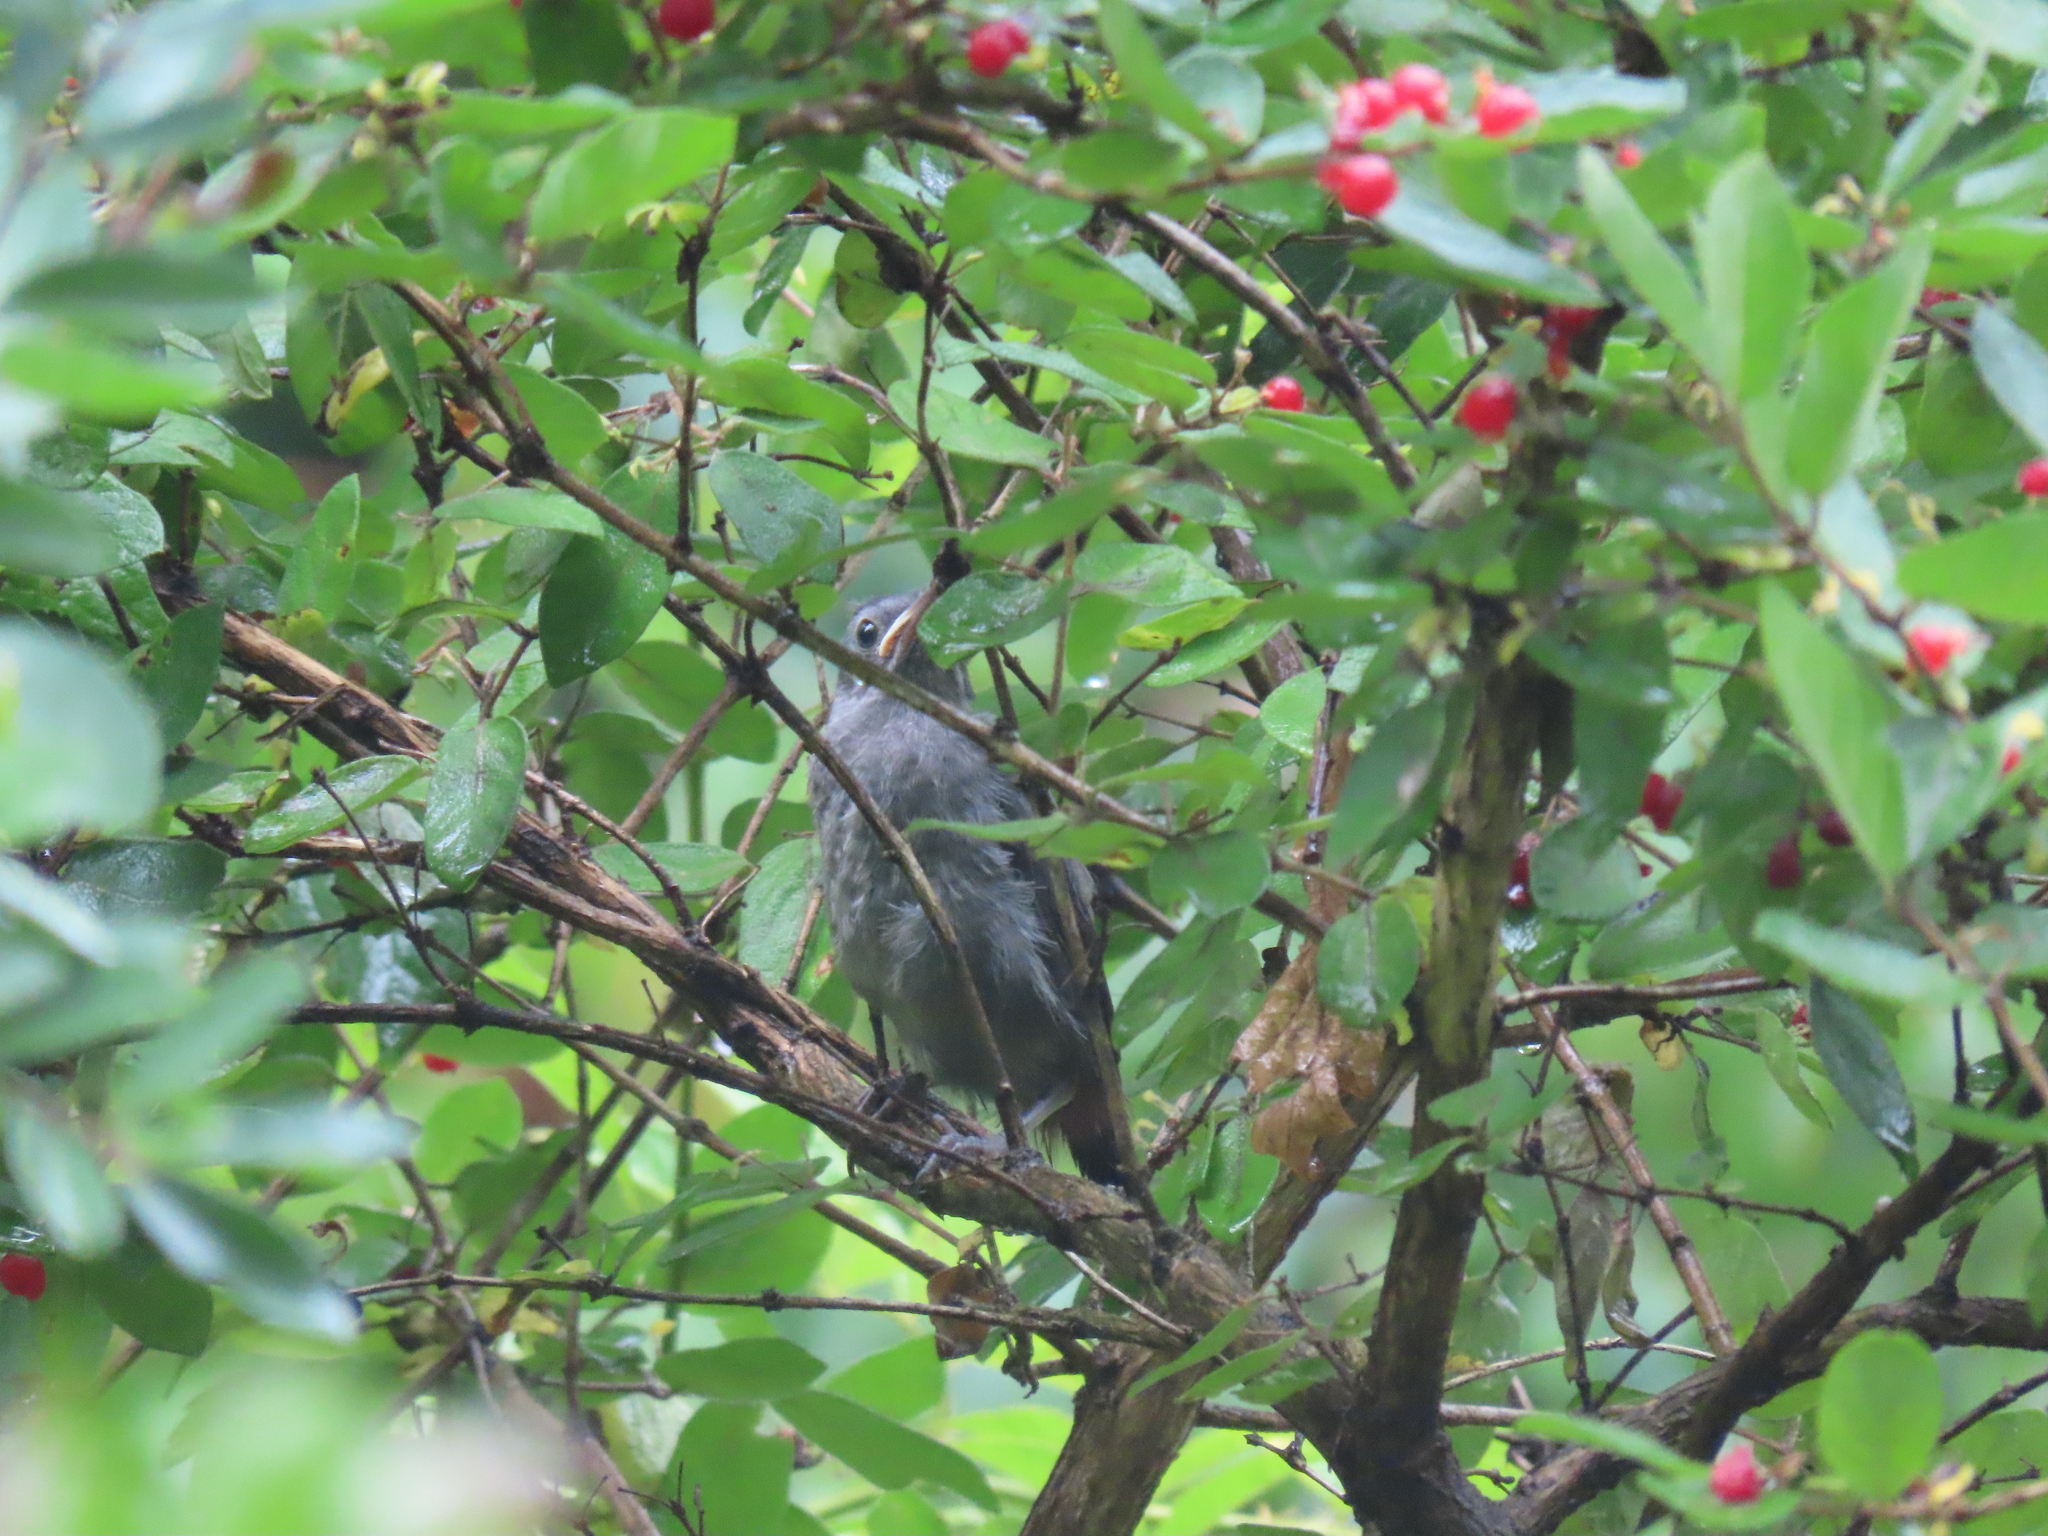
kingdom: Animalia
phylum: Chordata
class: Aves
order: Passeriformes
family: Mimidae
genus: Dumetella
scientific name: Dumetella carolinensis
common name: Gray catbird
